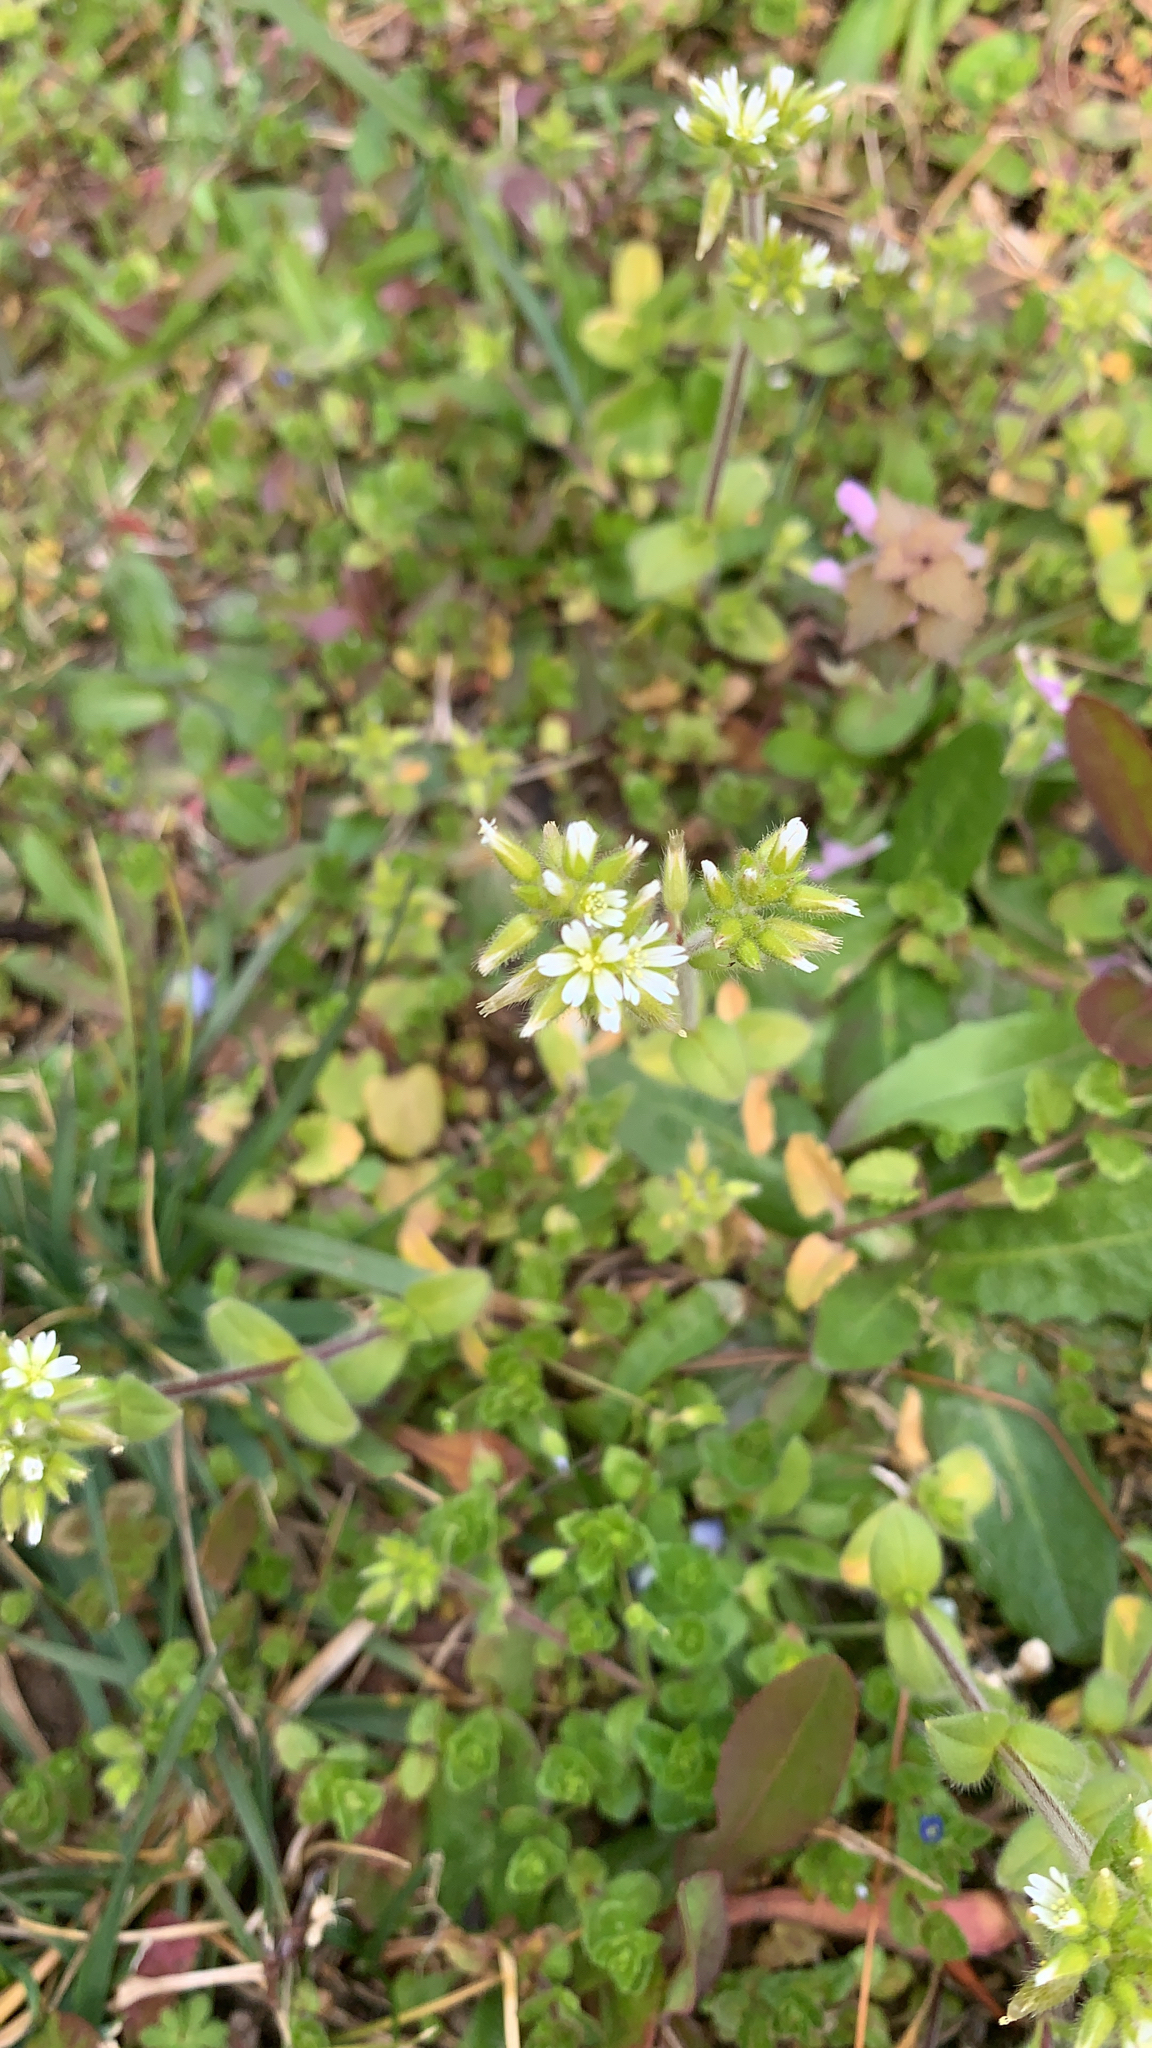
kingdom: Plantae
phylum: Tracheophyta
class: Magnoliopsida
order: Caryophyllales
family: Caryophyllaceae
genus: Cerastium
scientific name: Cerastium glomeratum
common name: Sticky chickweed
